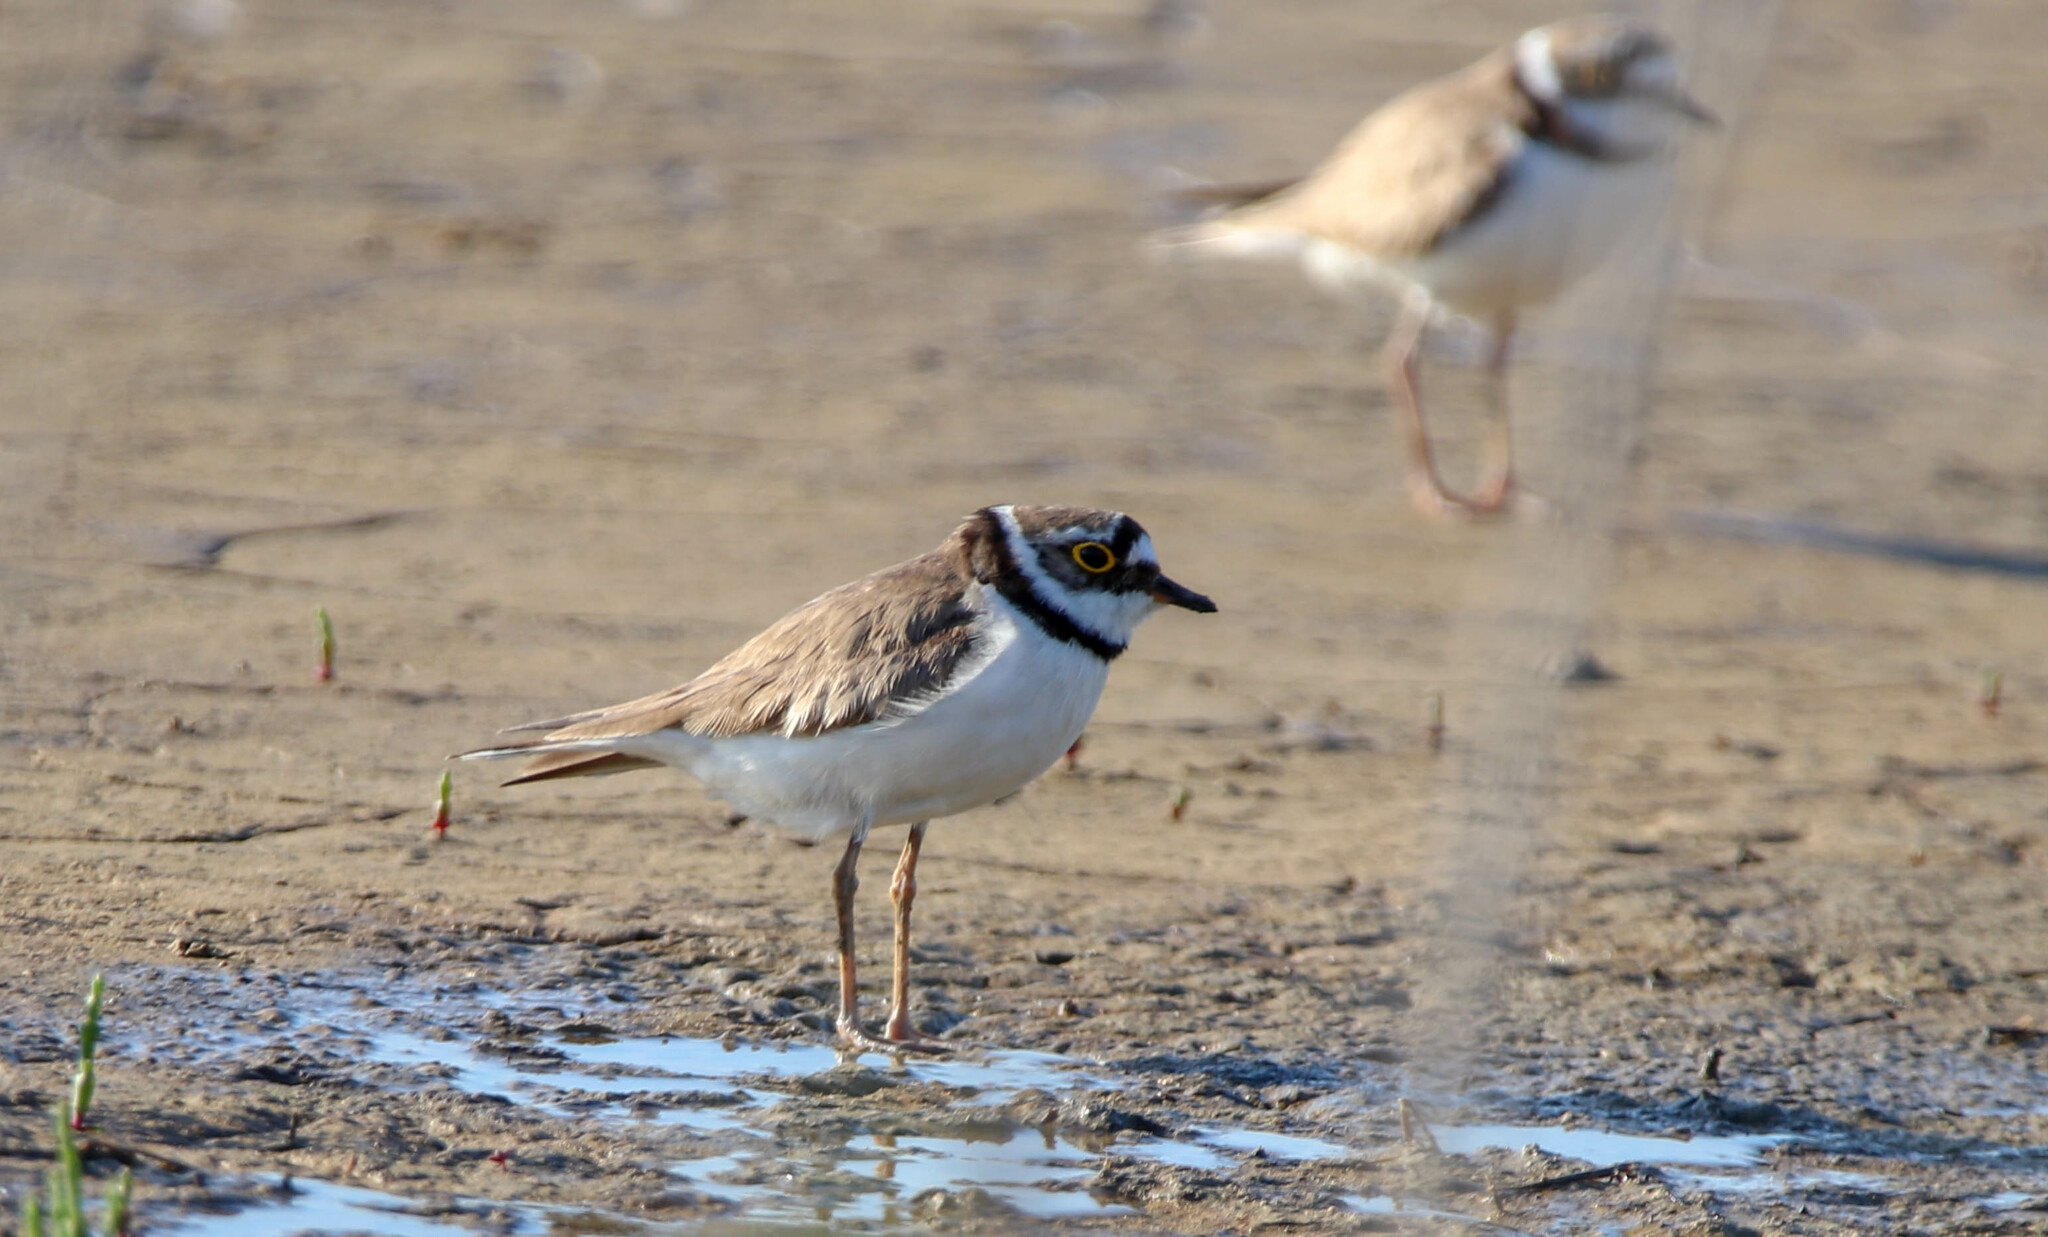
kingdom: Animalia
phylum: Chordata
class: Aves
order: Charadriiformes
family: Charadriidae
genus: Charadrius
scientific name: Charadrius dubius
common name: Little ringed plover
